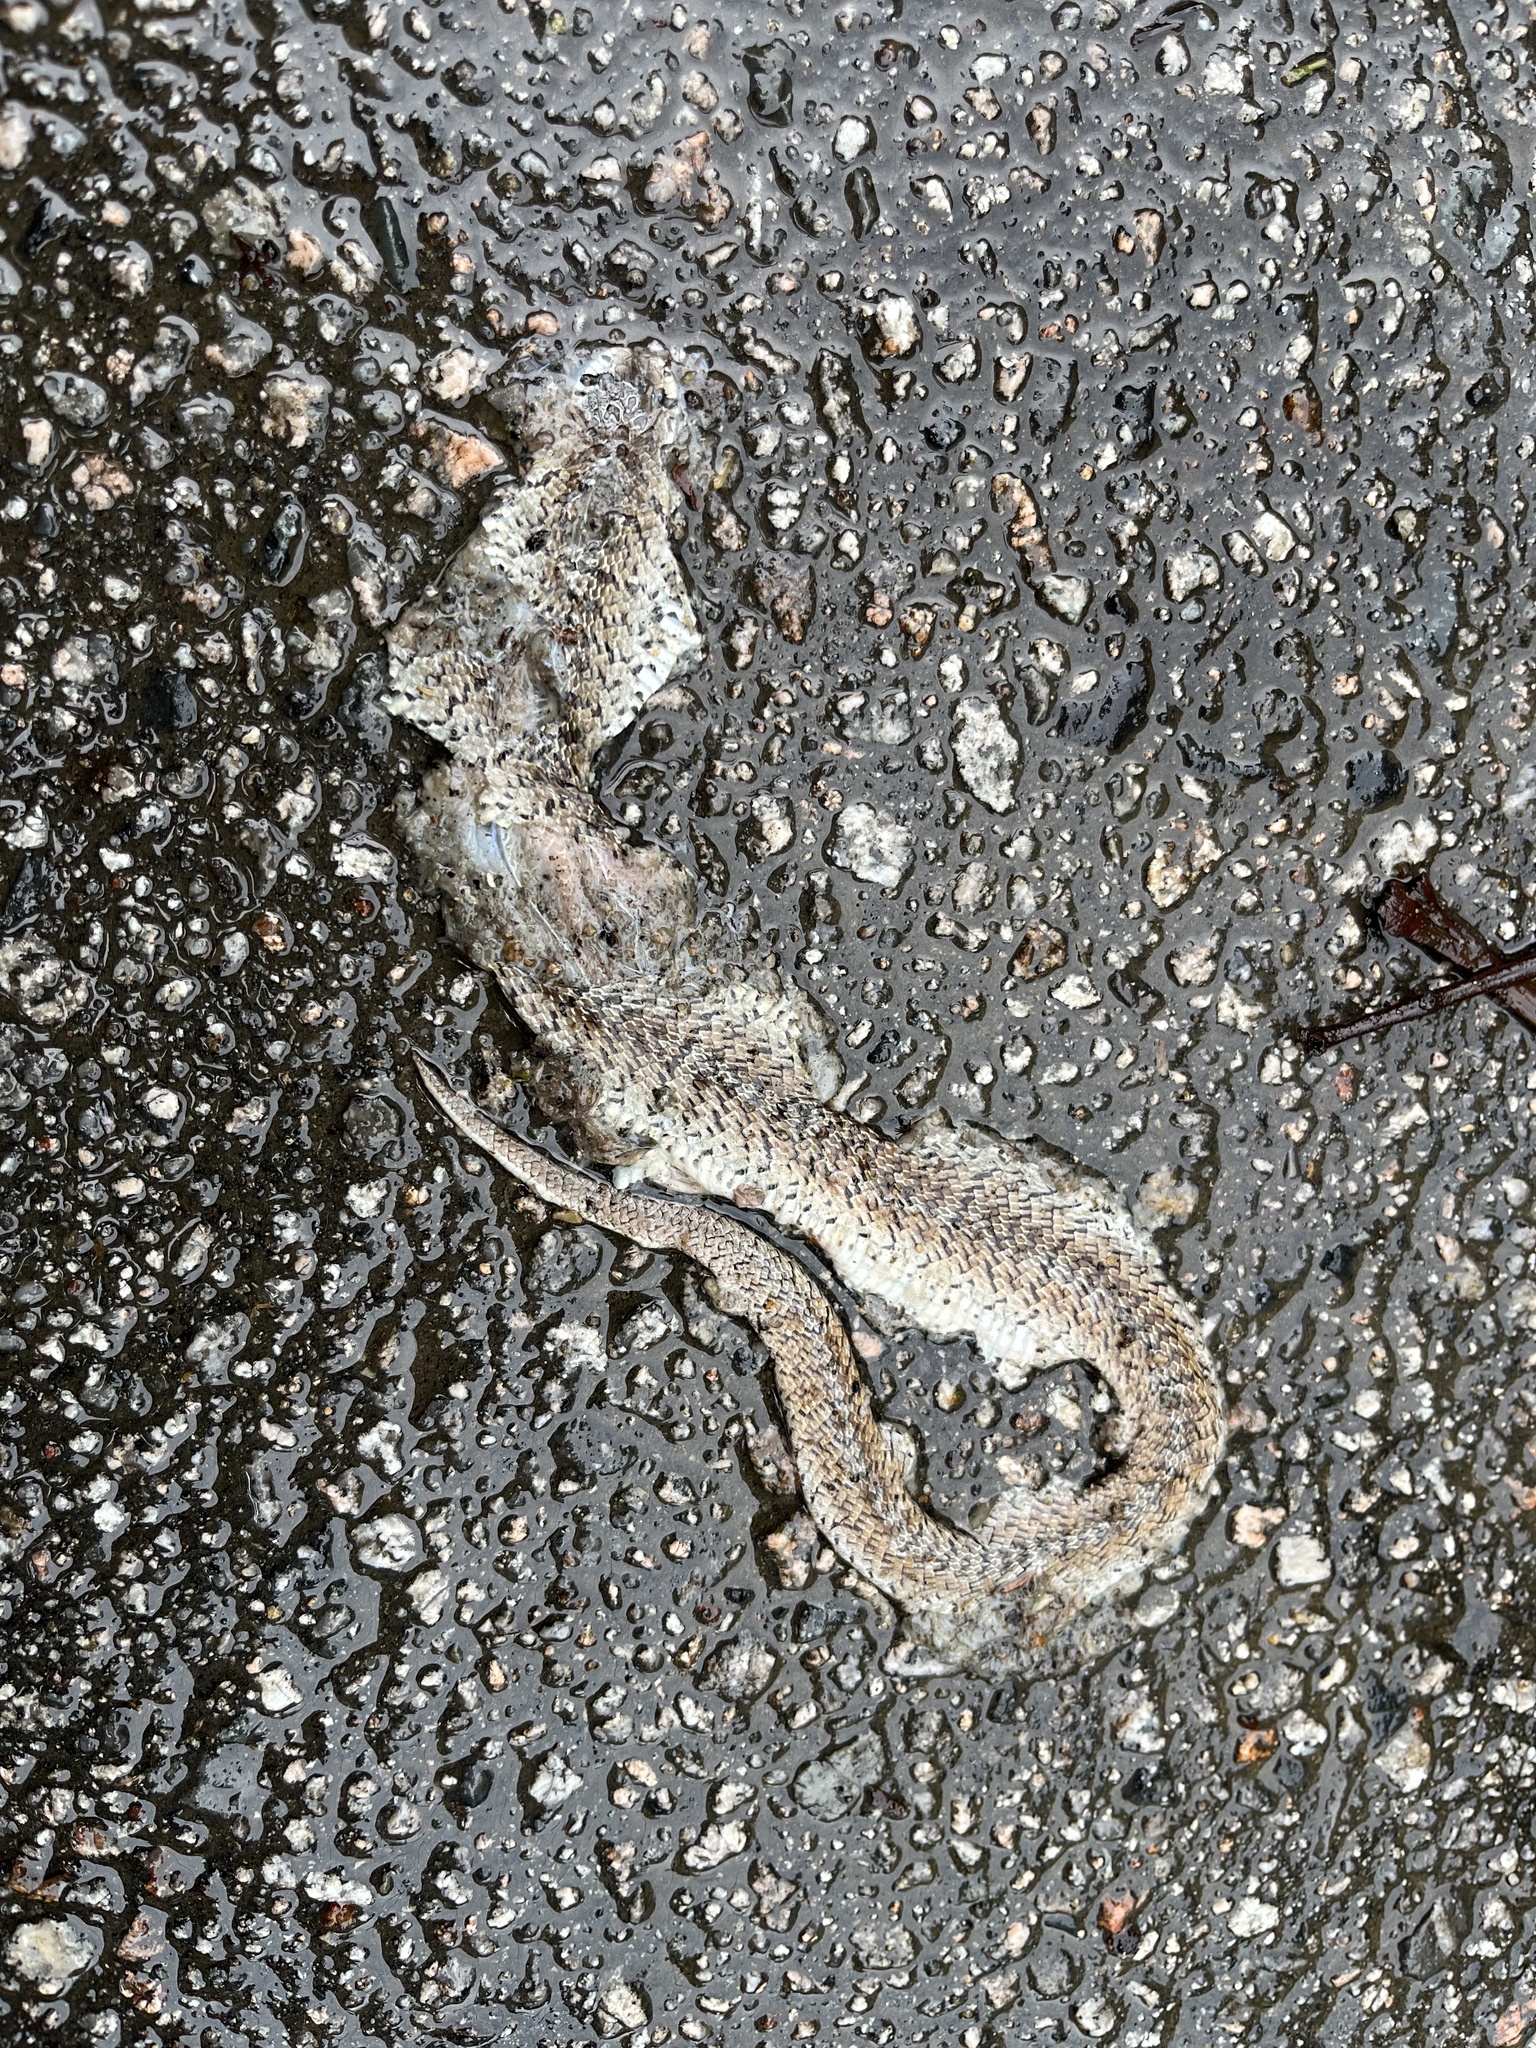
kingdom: Animalia
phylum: Chordata
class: Squamata
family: Colubridae
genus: Oligodon
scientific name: Oligodon formosanus
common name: Formosa kukri snake
